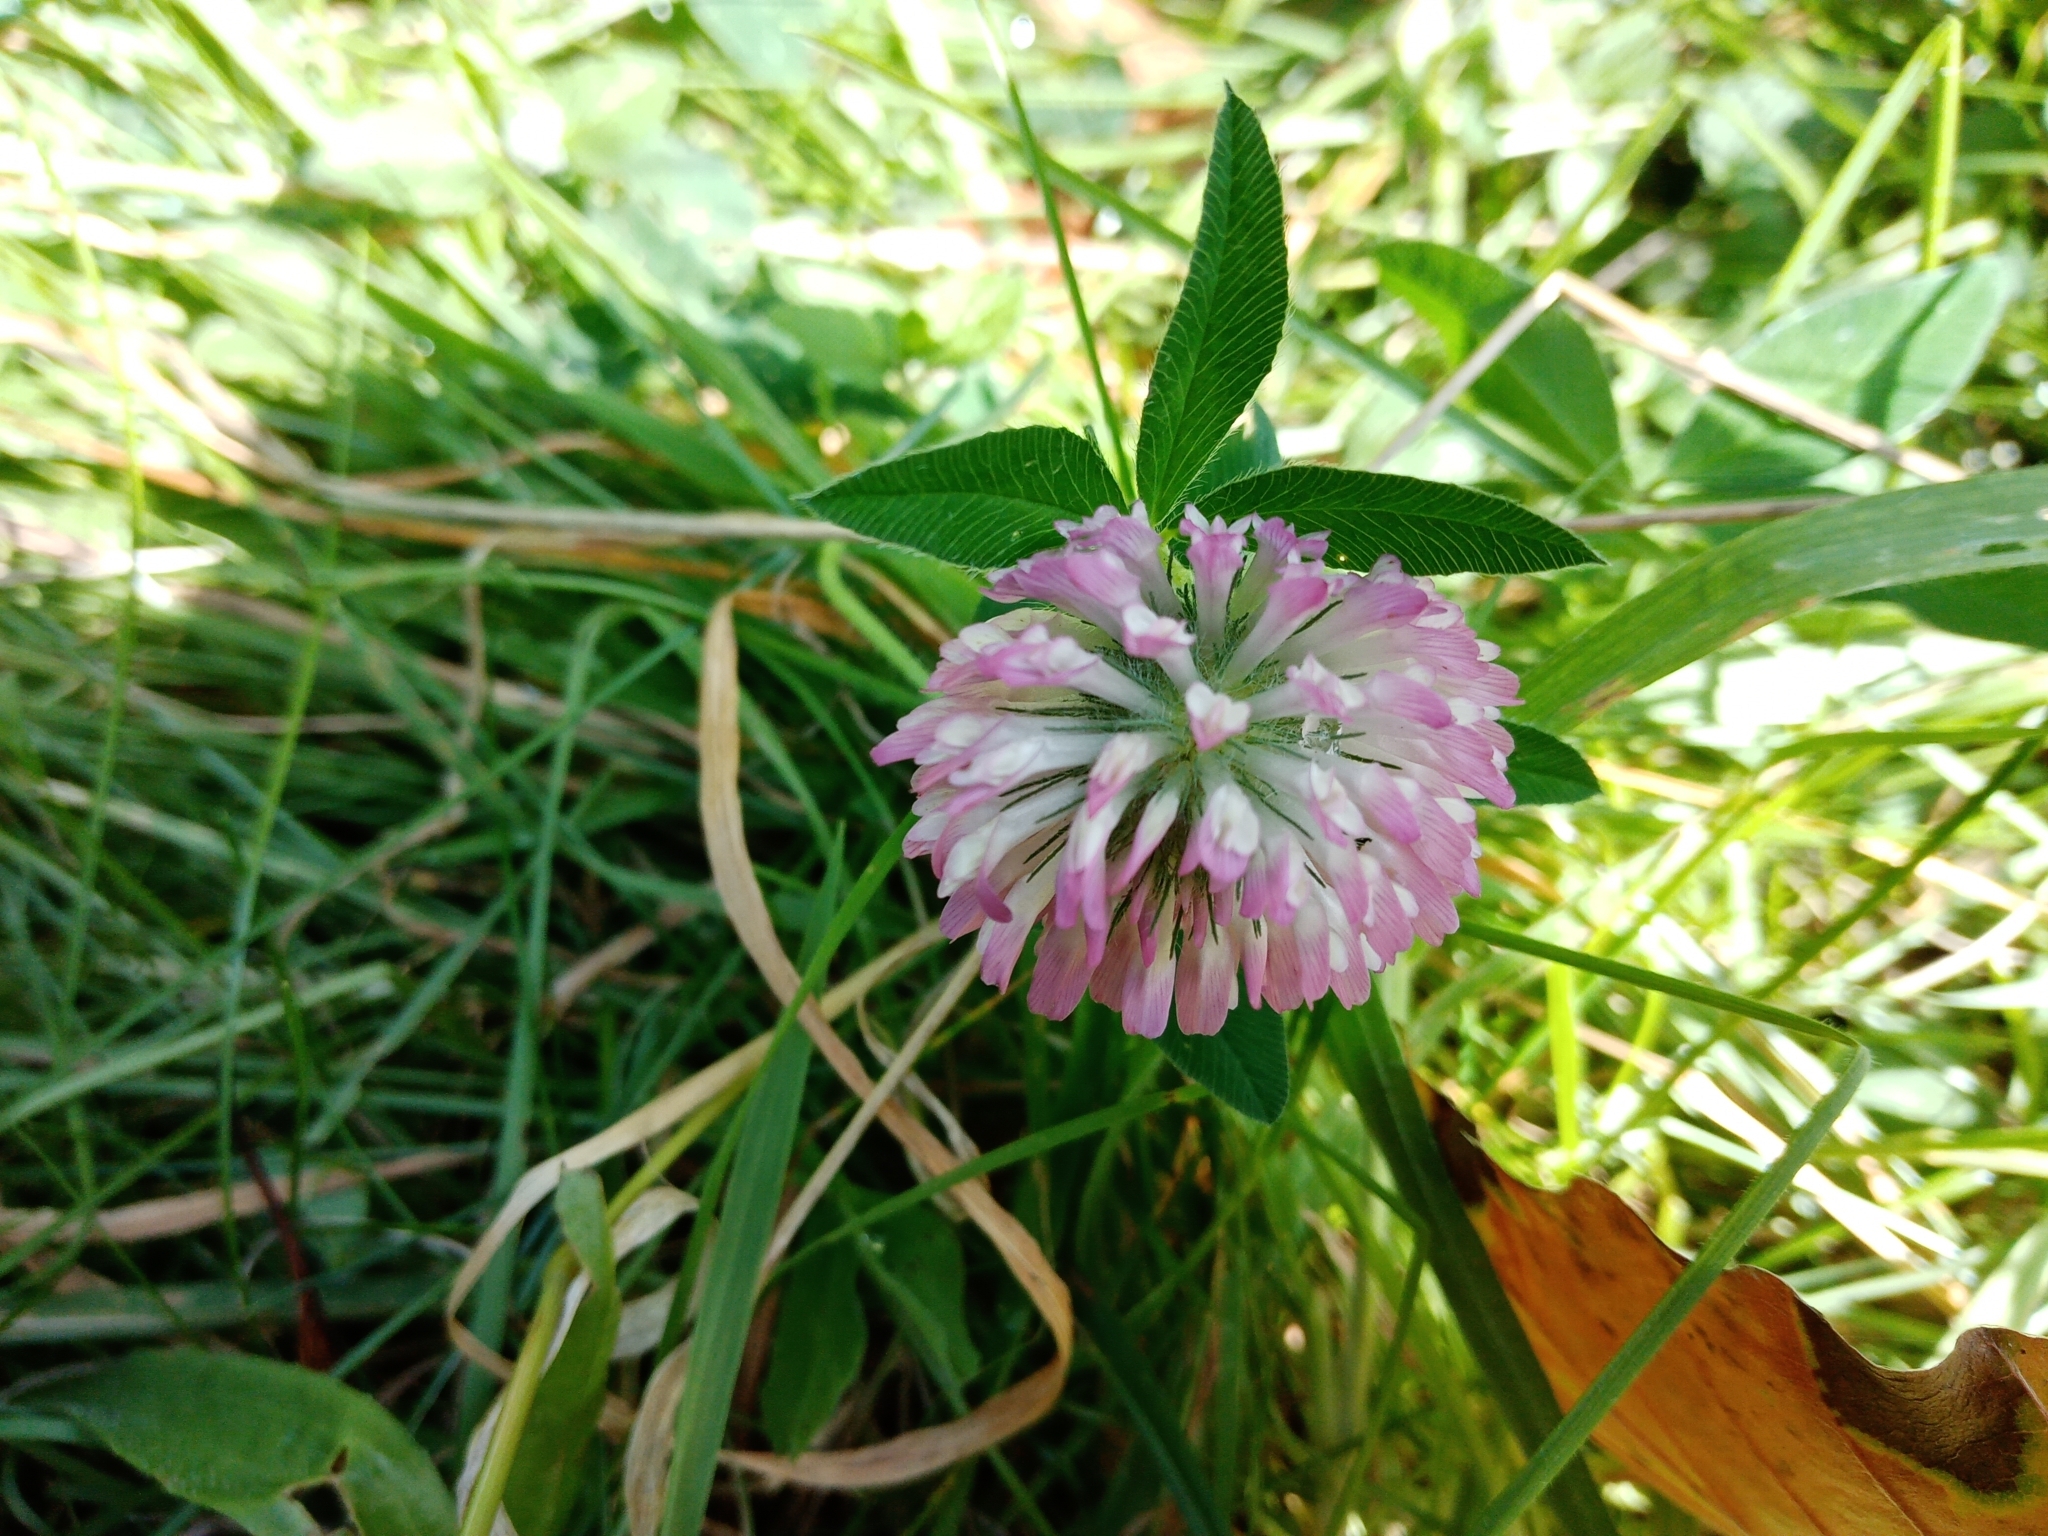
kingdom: Plantae
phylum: Tracheophyta
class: Magnoliopsida
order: Fabales
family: Fabaceae
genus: Trifolium
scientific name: Trifolium pratense
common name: Red clover
